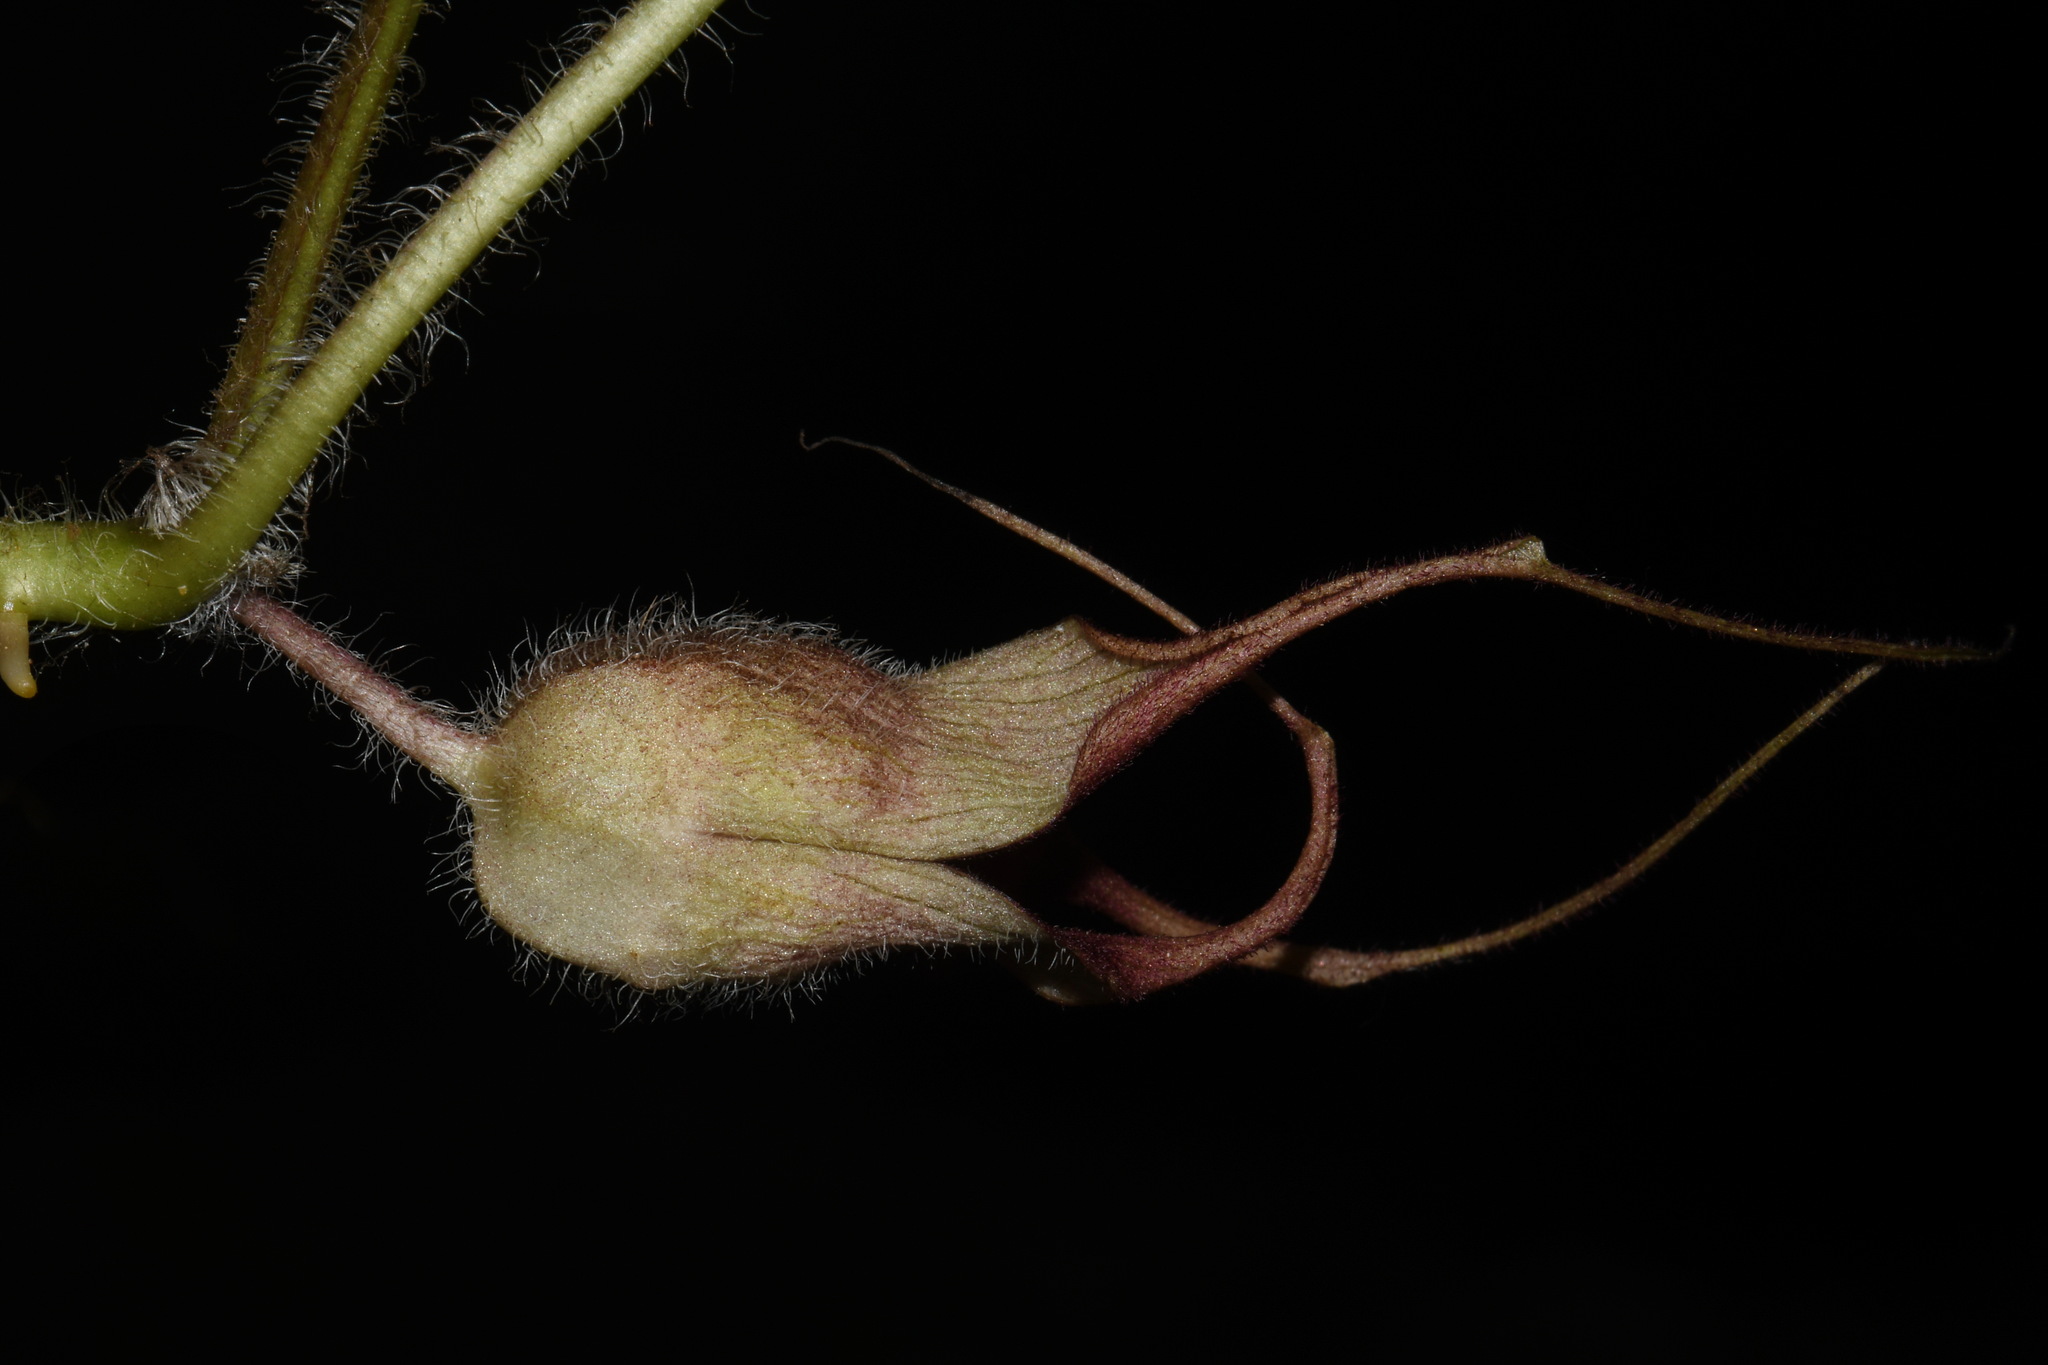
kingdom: Plantae
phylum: Tracheophyta
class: Magnoliopsida
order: Piperales
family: Aristolochiaceae
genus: Asarum
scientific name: Asarum caudatum
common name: Wild ginger
